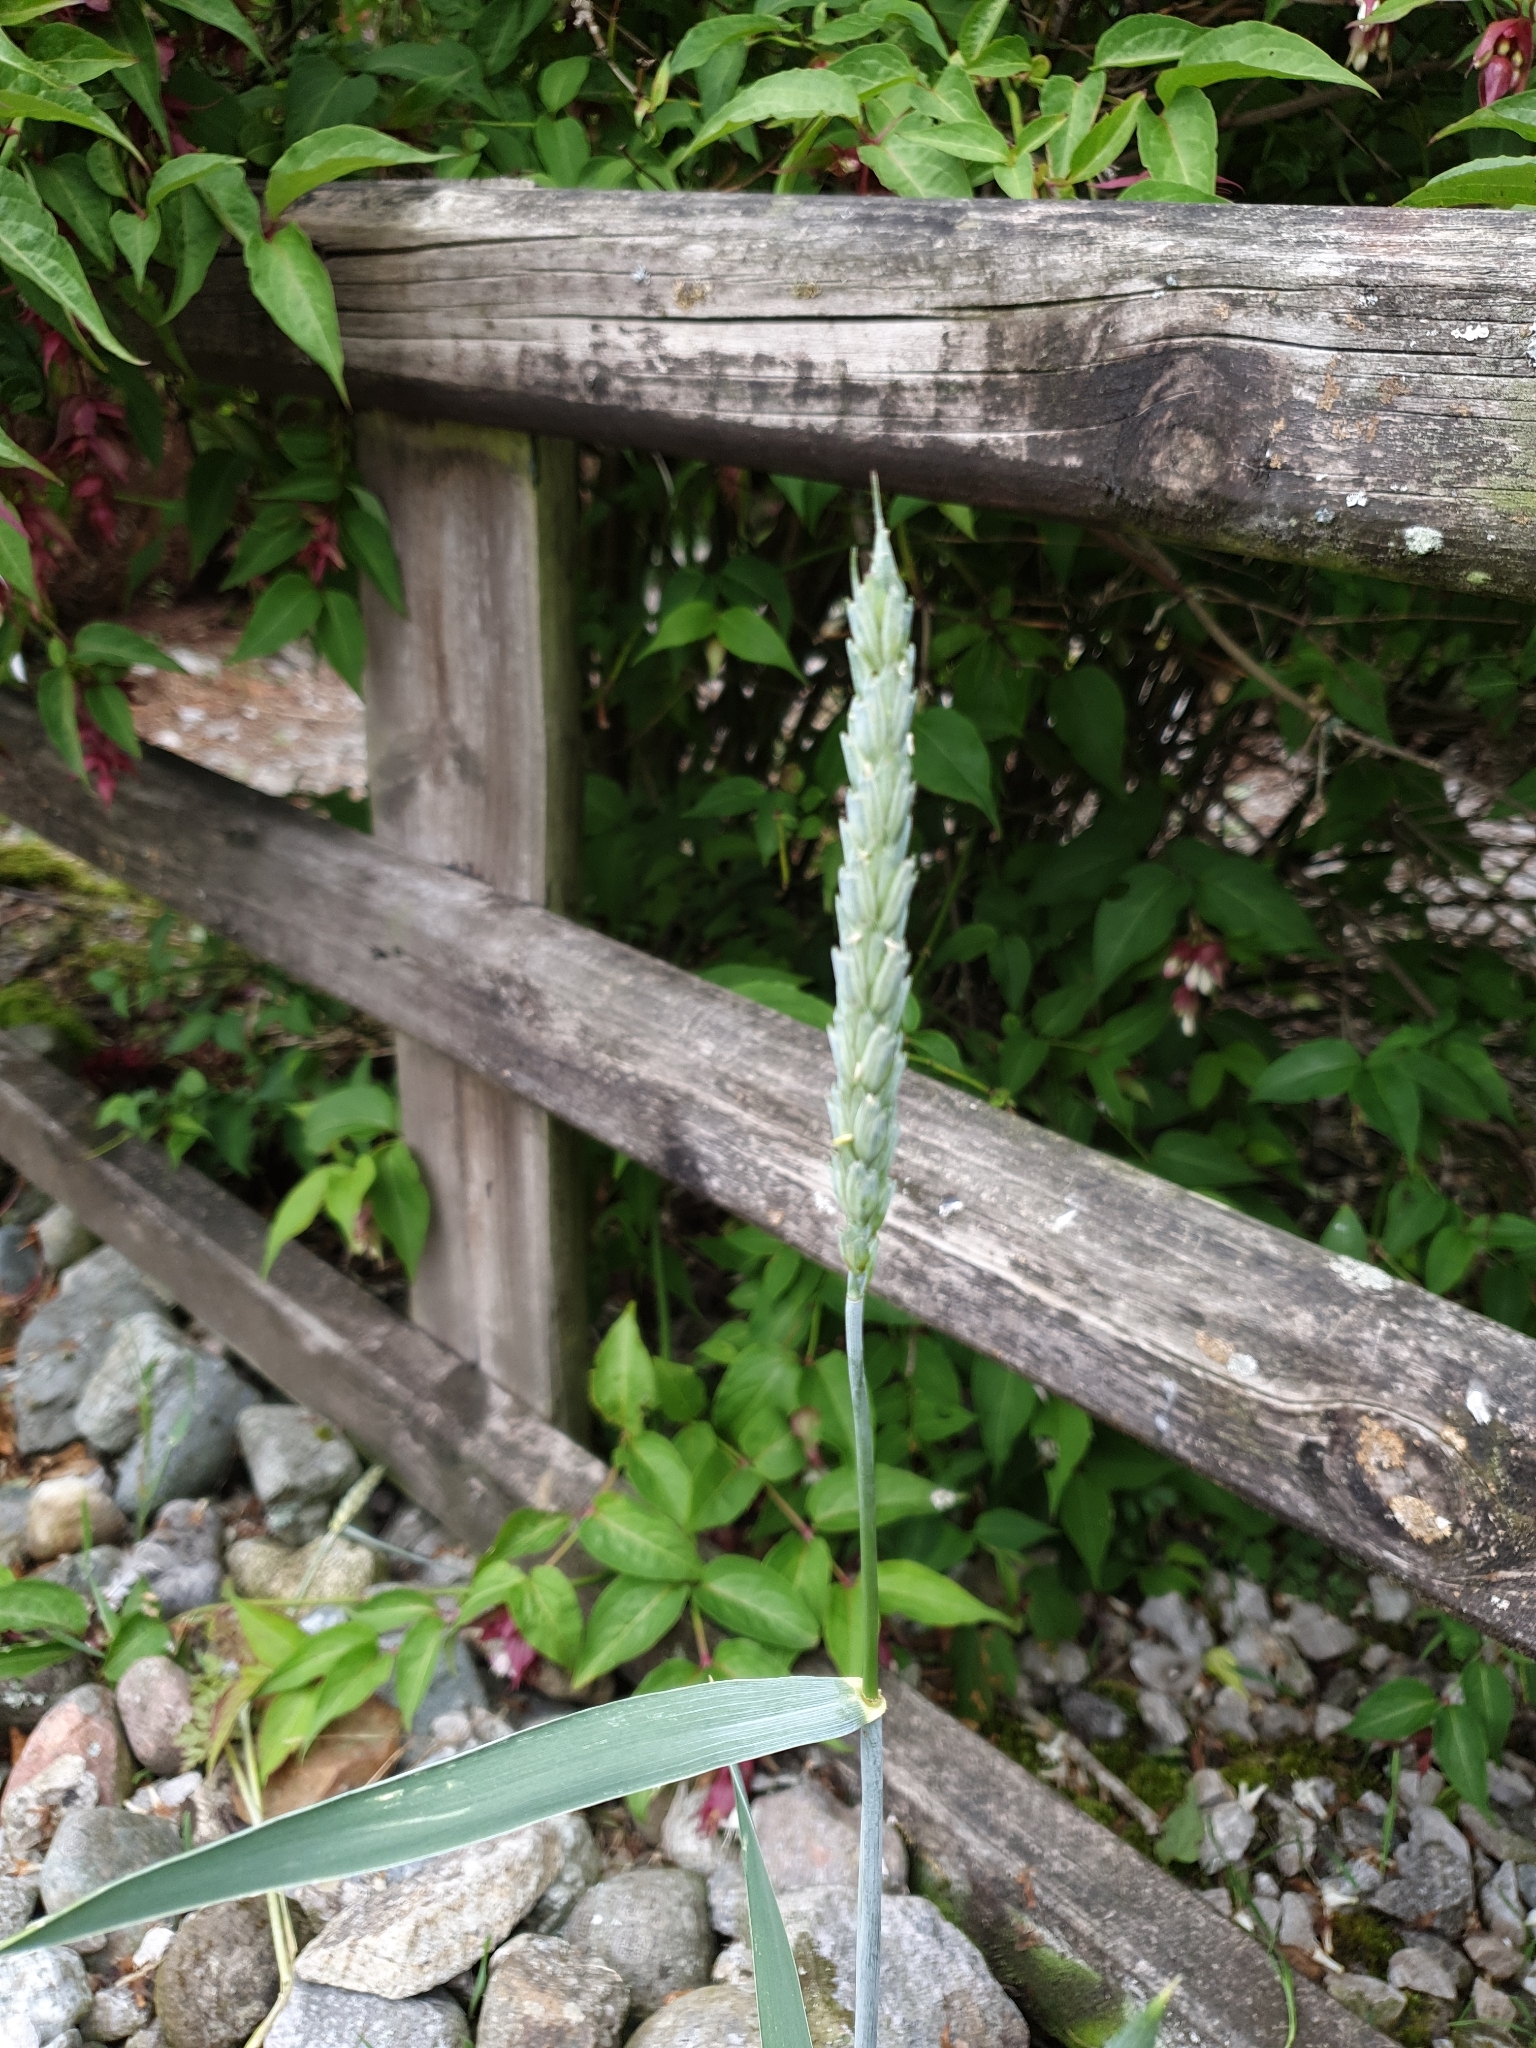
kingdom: Plantae
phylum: Tracheophyta
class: Liliopsida
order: Poales
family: Poaceae
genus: Triticum
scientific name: Triticum aestivum
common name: Common wheat
